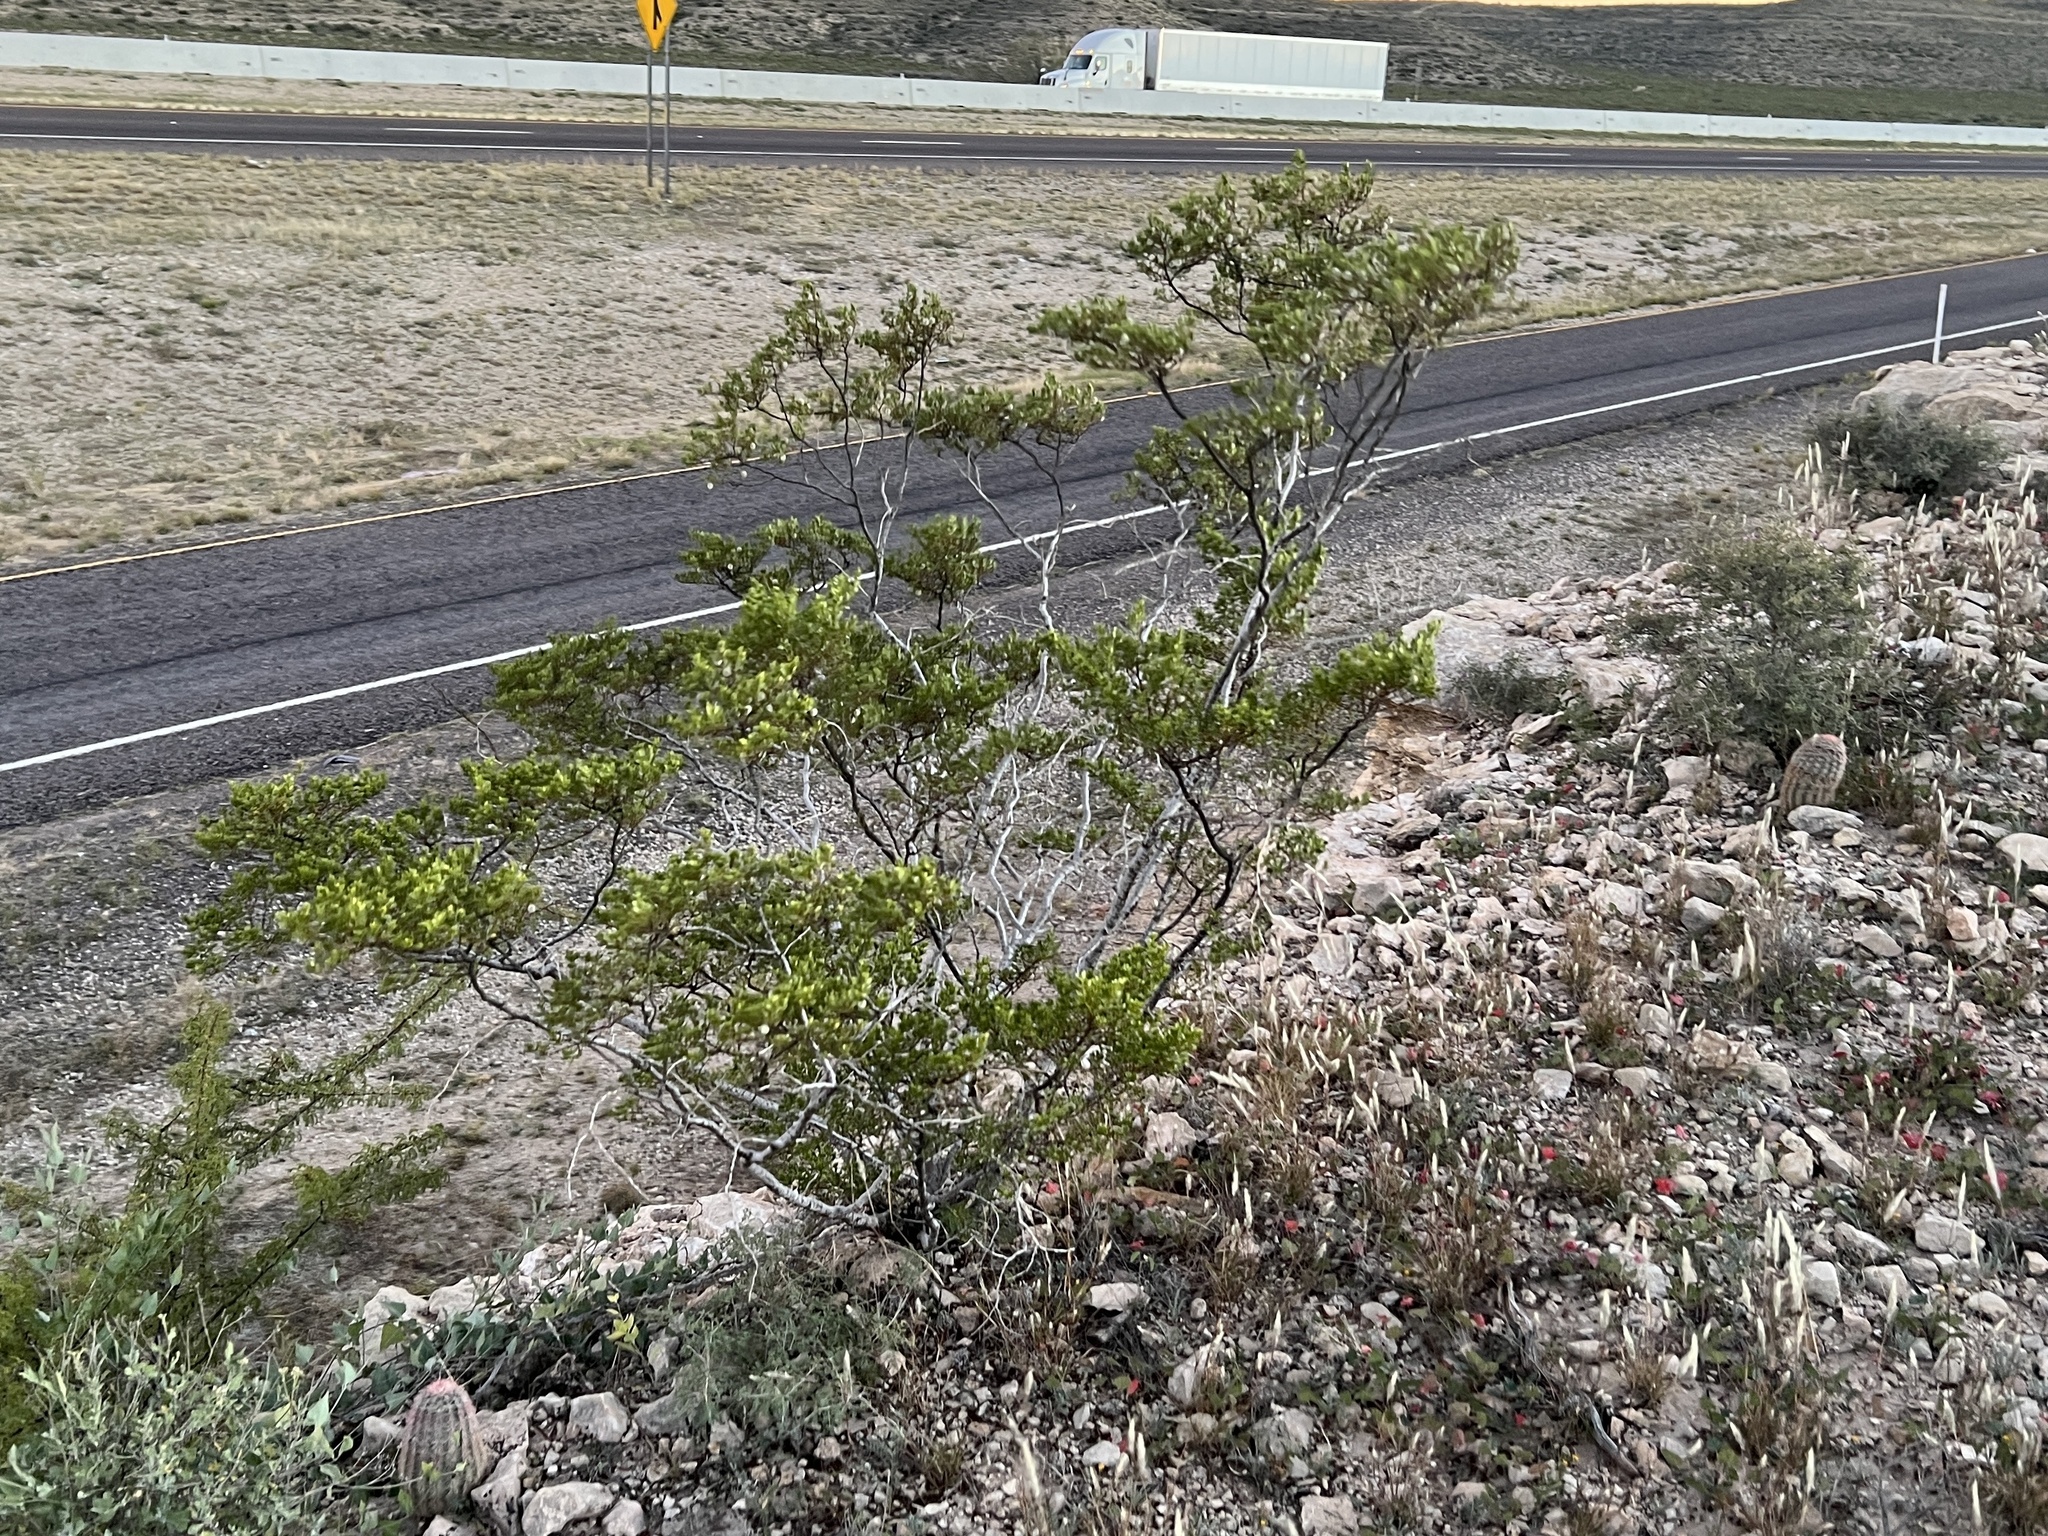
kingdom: Plantae
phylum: Tracheophyta
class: Magnoliopsida
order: Zygophyllales
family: Zygophyllaceae
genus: Larrea
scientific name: Larrea tridentata
